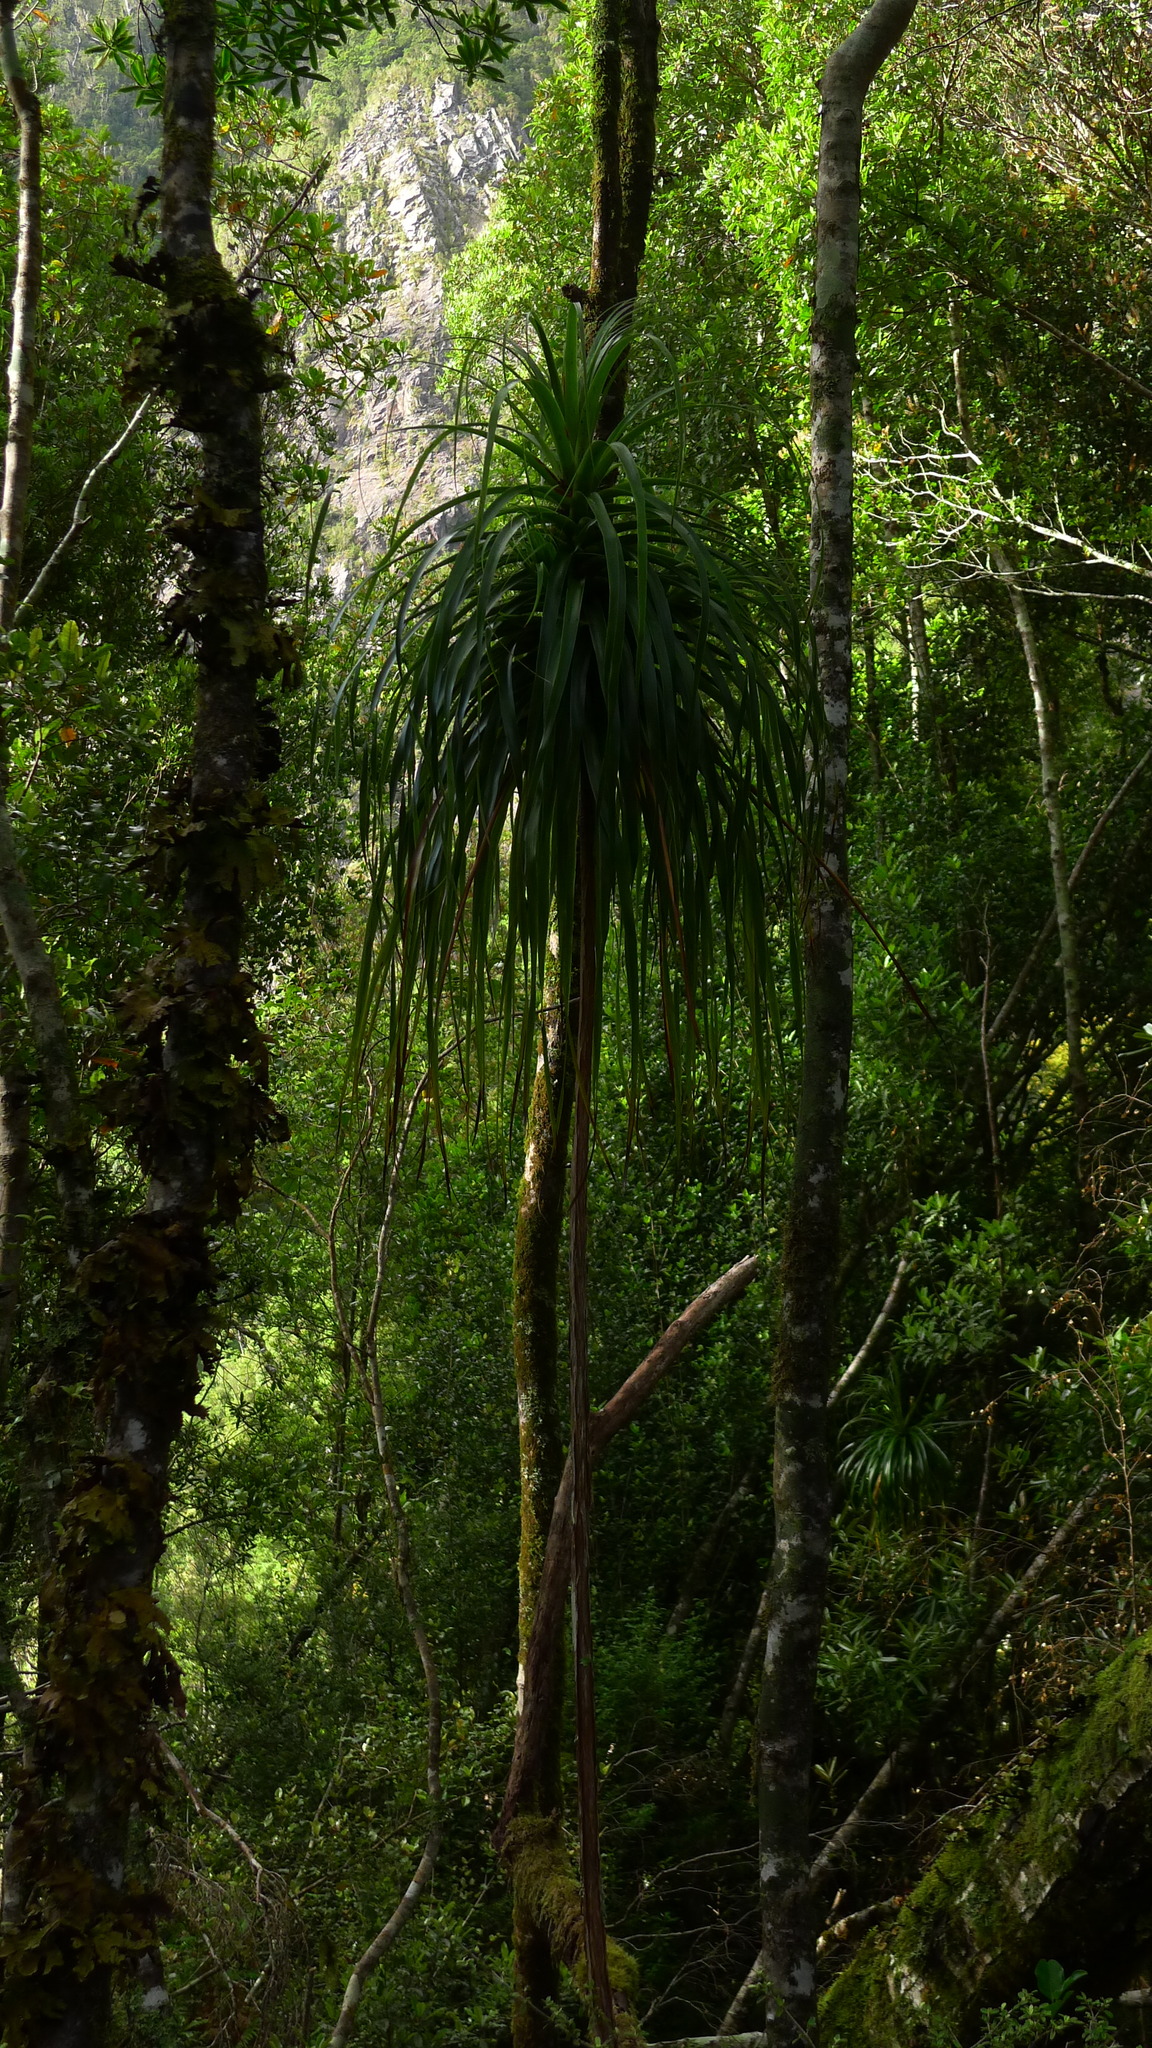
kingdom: Plantae
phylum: Tracheophyta
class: Magnoliopsida
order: Ericales
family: Ericaceae
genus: Dracophyllum
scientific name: Dracophyllum elegantissimum
